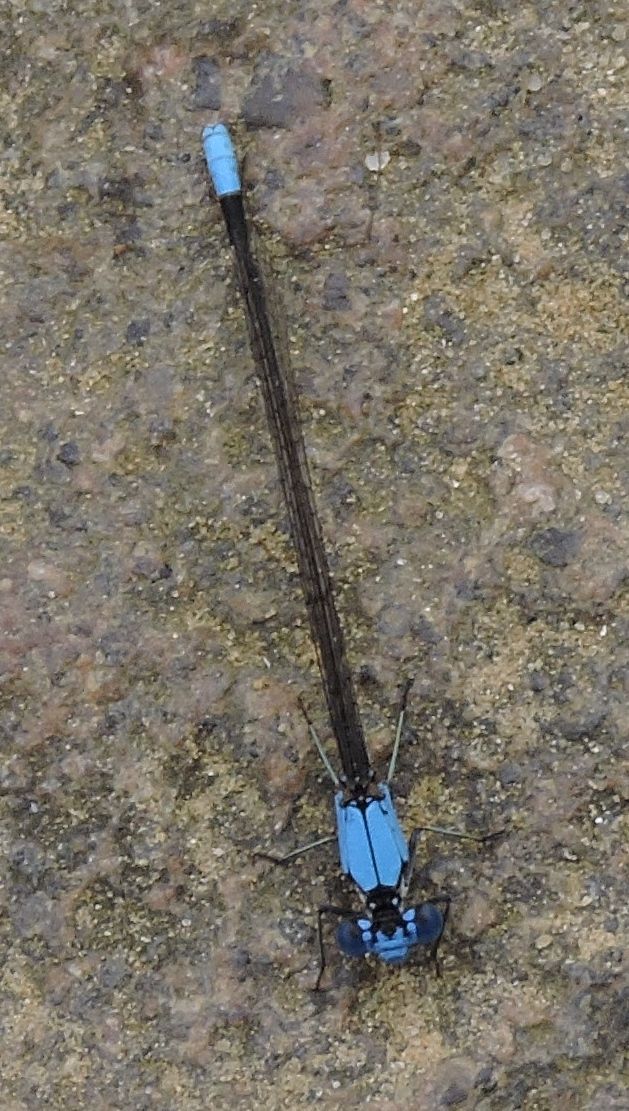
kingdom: Animalia
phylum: Arthropoda
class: Insecta
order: Odonata
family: Coenagrionidae
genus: Argia
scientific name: Argia apicalis
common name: Blue-fronted dancer
